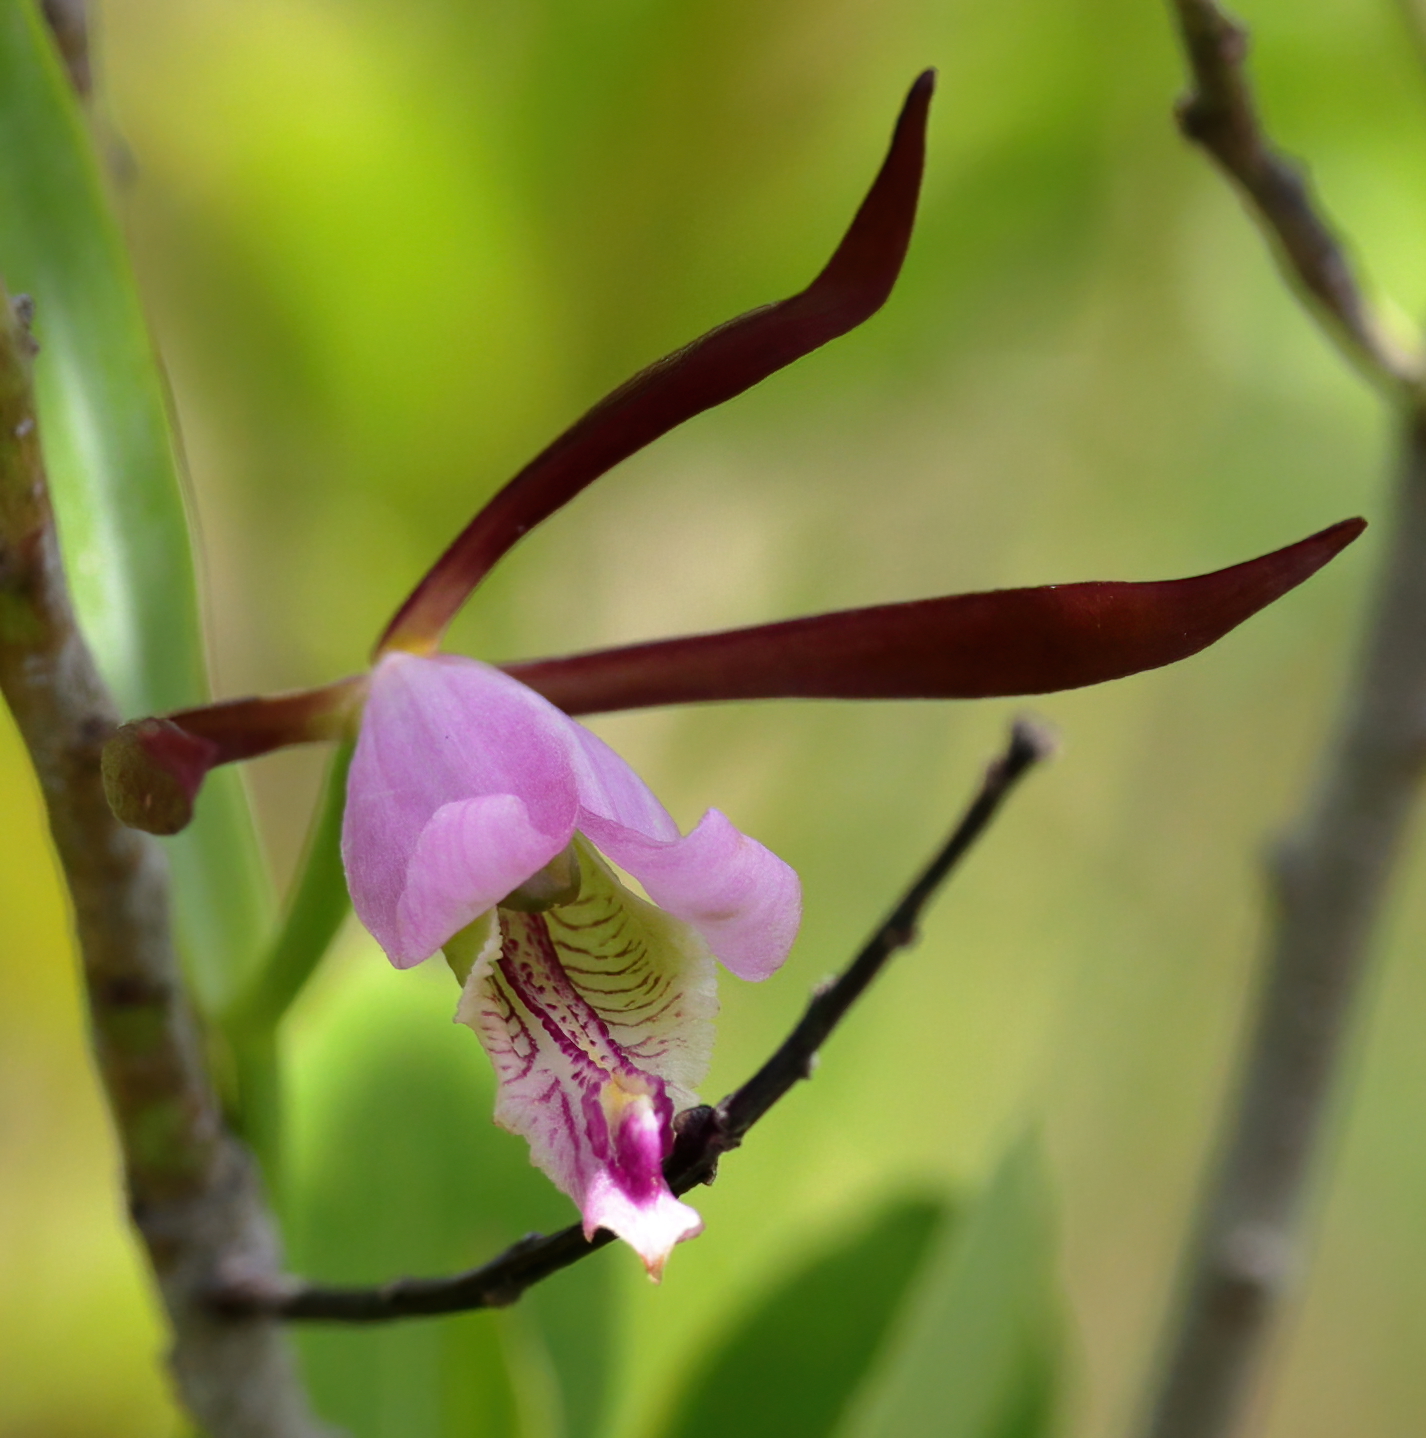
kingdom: Plantae
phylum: Tracheophyta
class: Liliopsida
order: Asparagales
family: Orchidaceae
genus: Cleistesiopsis
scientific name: Cleistesiopsis oricamporum
